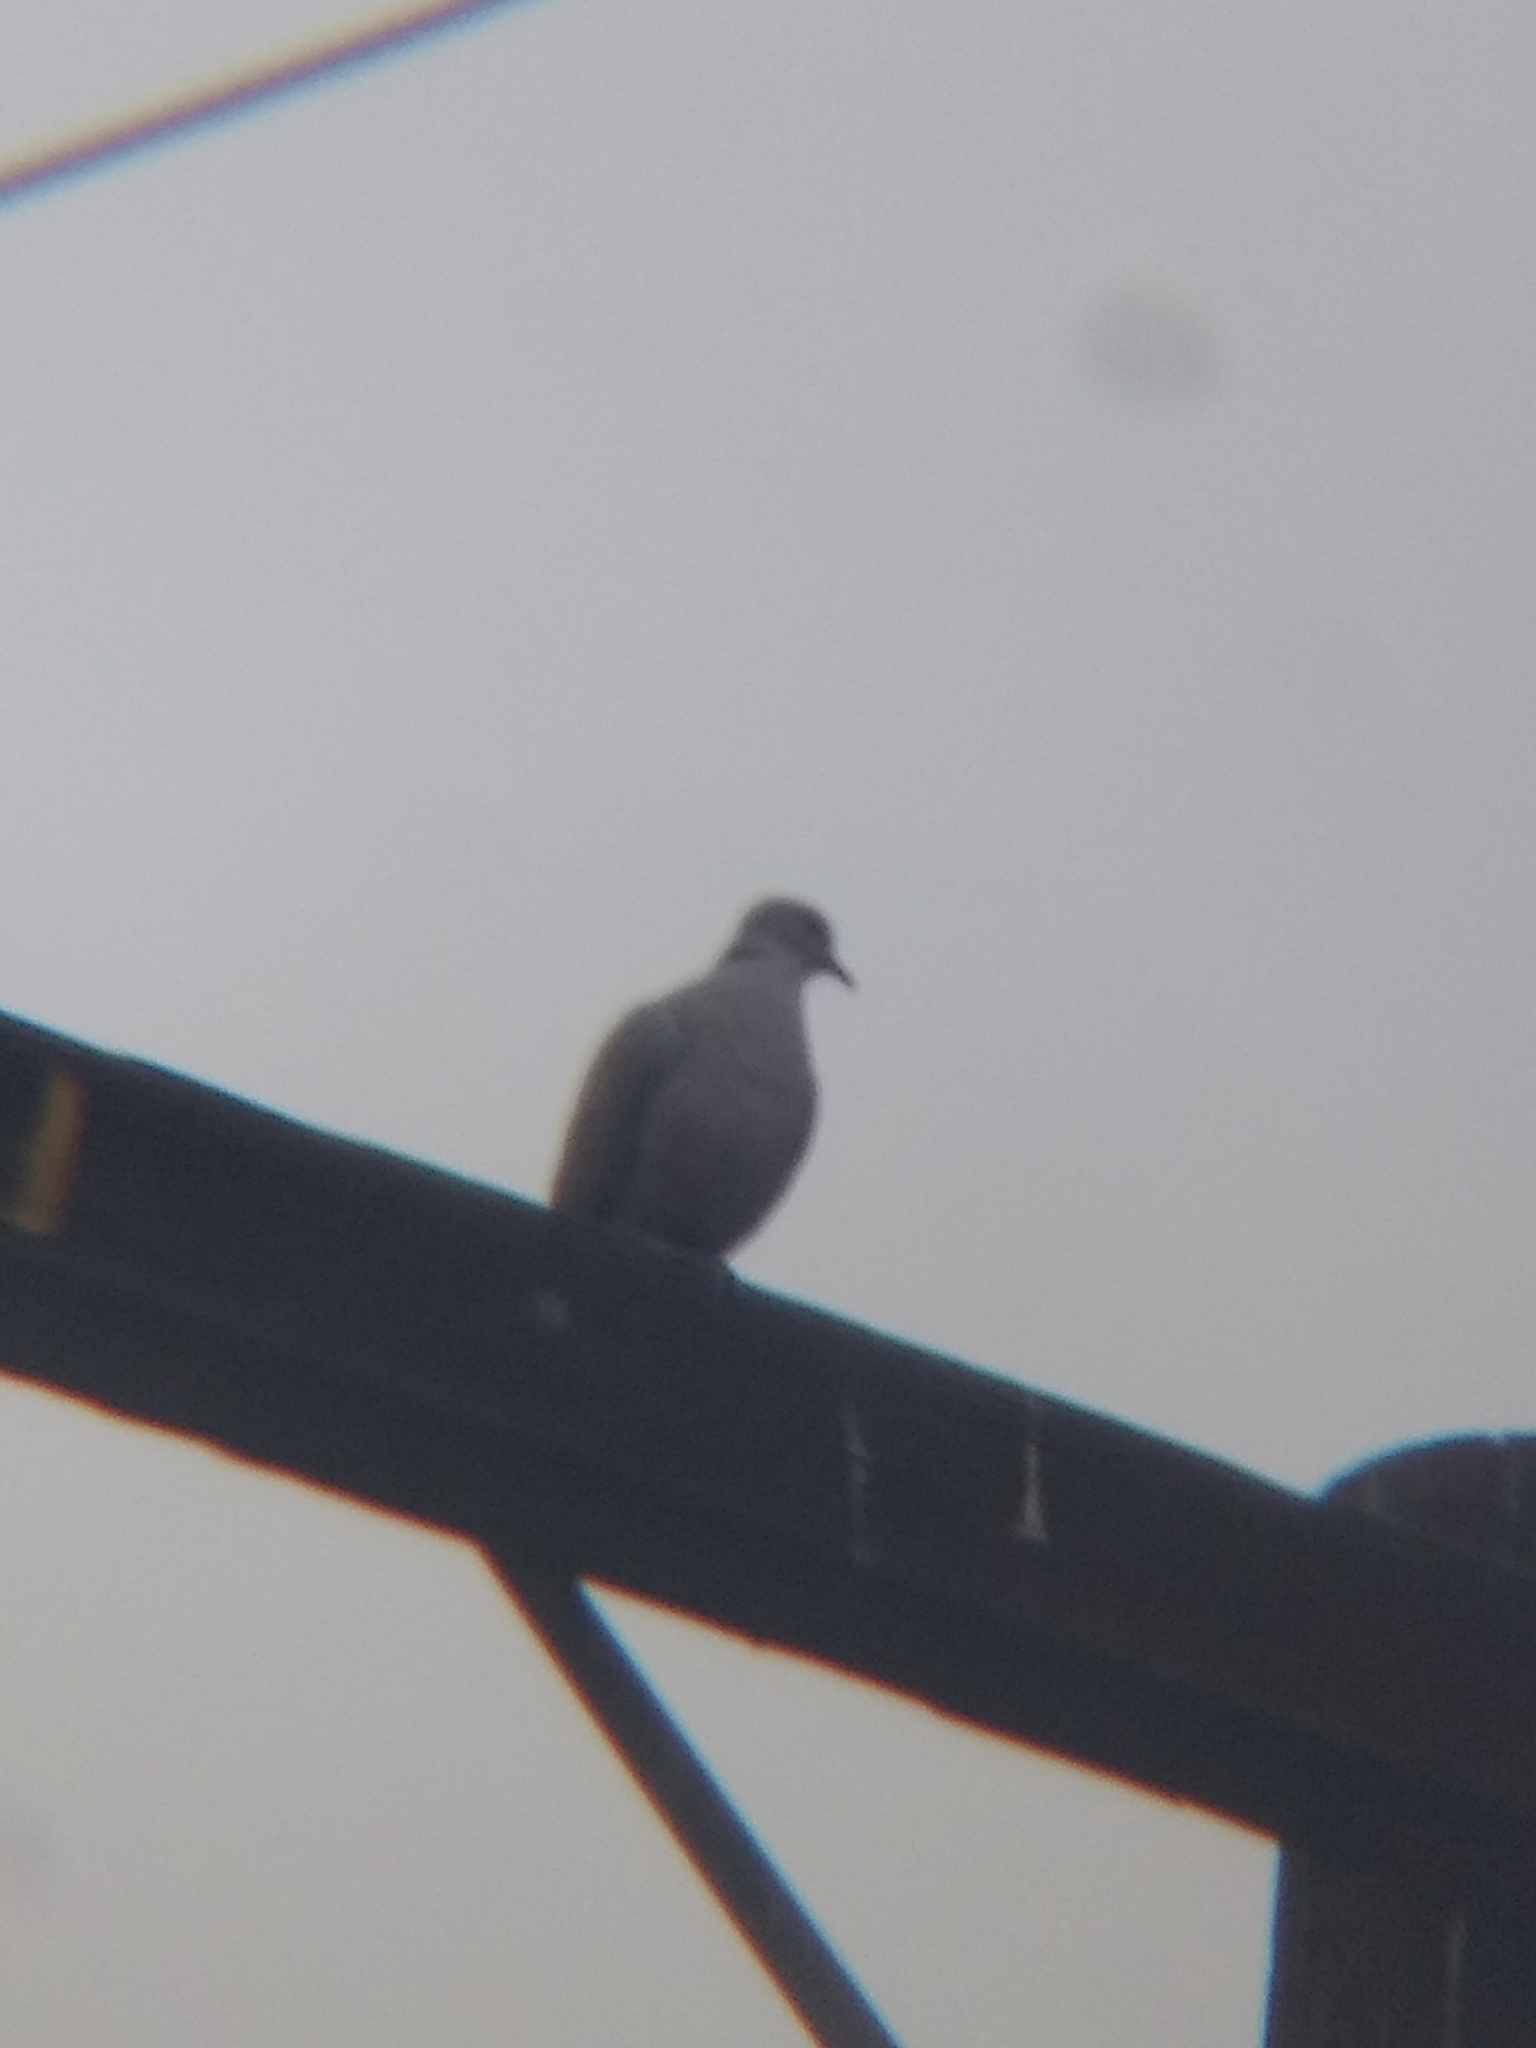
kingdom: Animalia
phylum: Chordata
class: Aves
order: Columbiformes
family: Columbidae
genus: Streptopelia
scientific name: Streptopelia decaocto
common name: Eurasian collared dove
